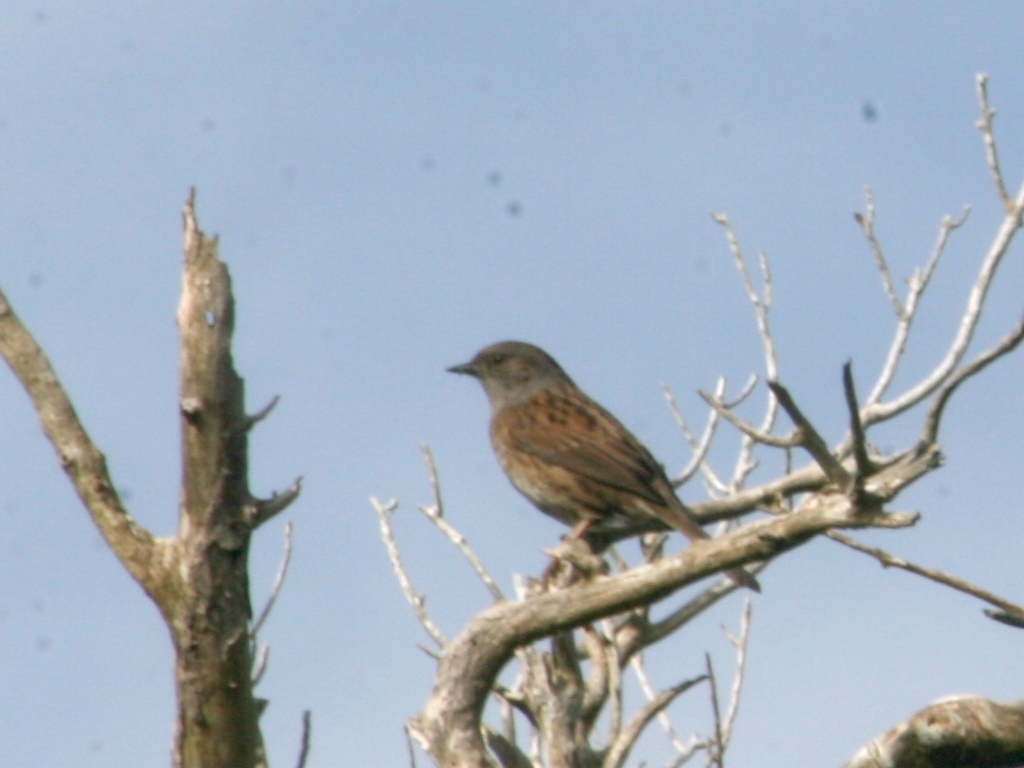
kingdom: Animalia
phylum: Chordata
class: Aves
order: Passeriformes
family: Prunellidae
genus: Prunella
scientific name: Prunella modularis
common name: Dunnock
